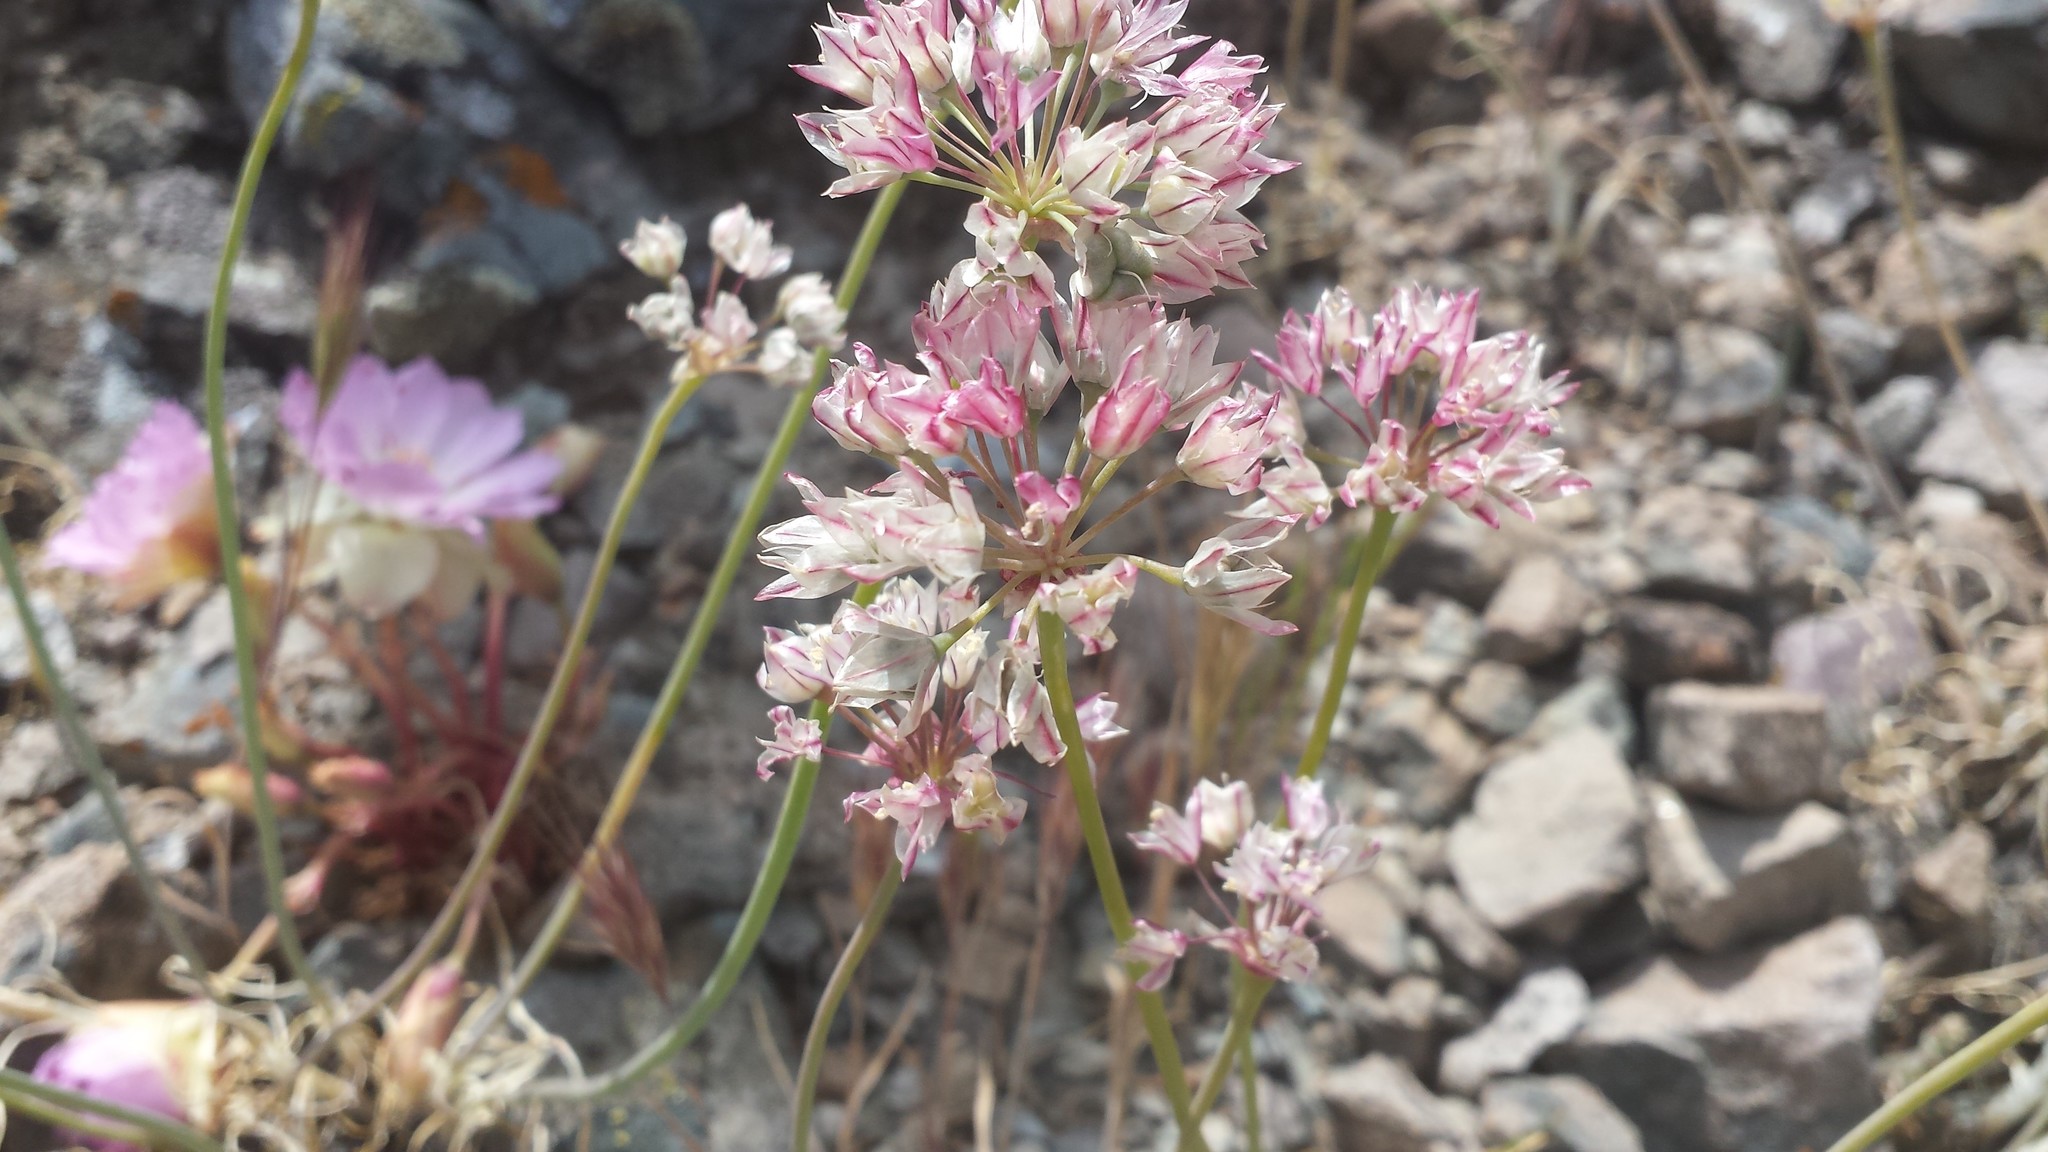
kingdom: Plantae
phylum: Tracheophyta
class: Liliopsida
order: Asparagales
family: Amaryllidaceae
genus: Allium
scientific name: Allium haematochiton
